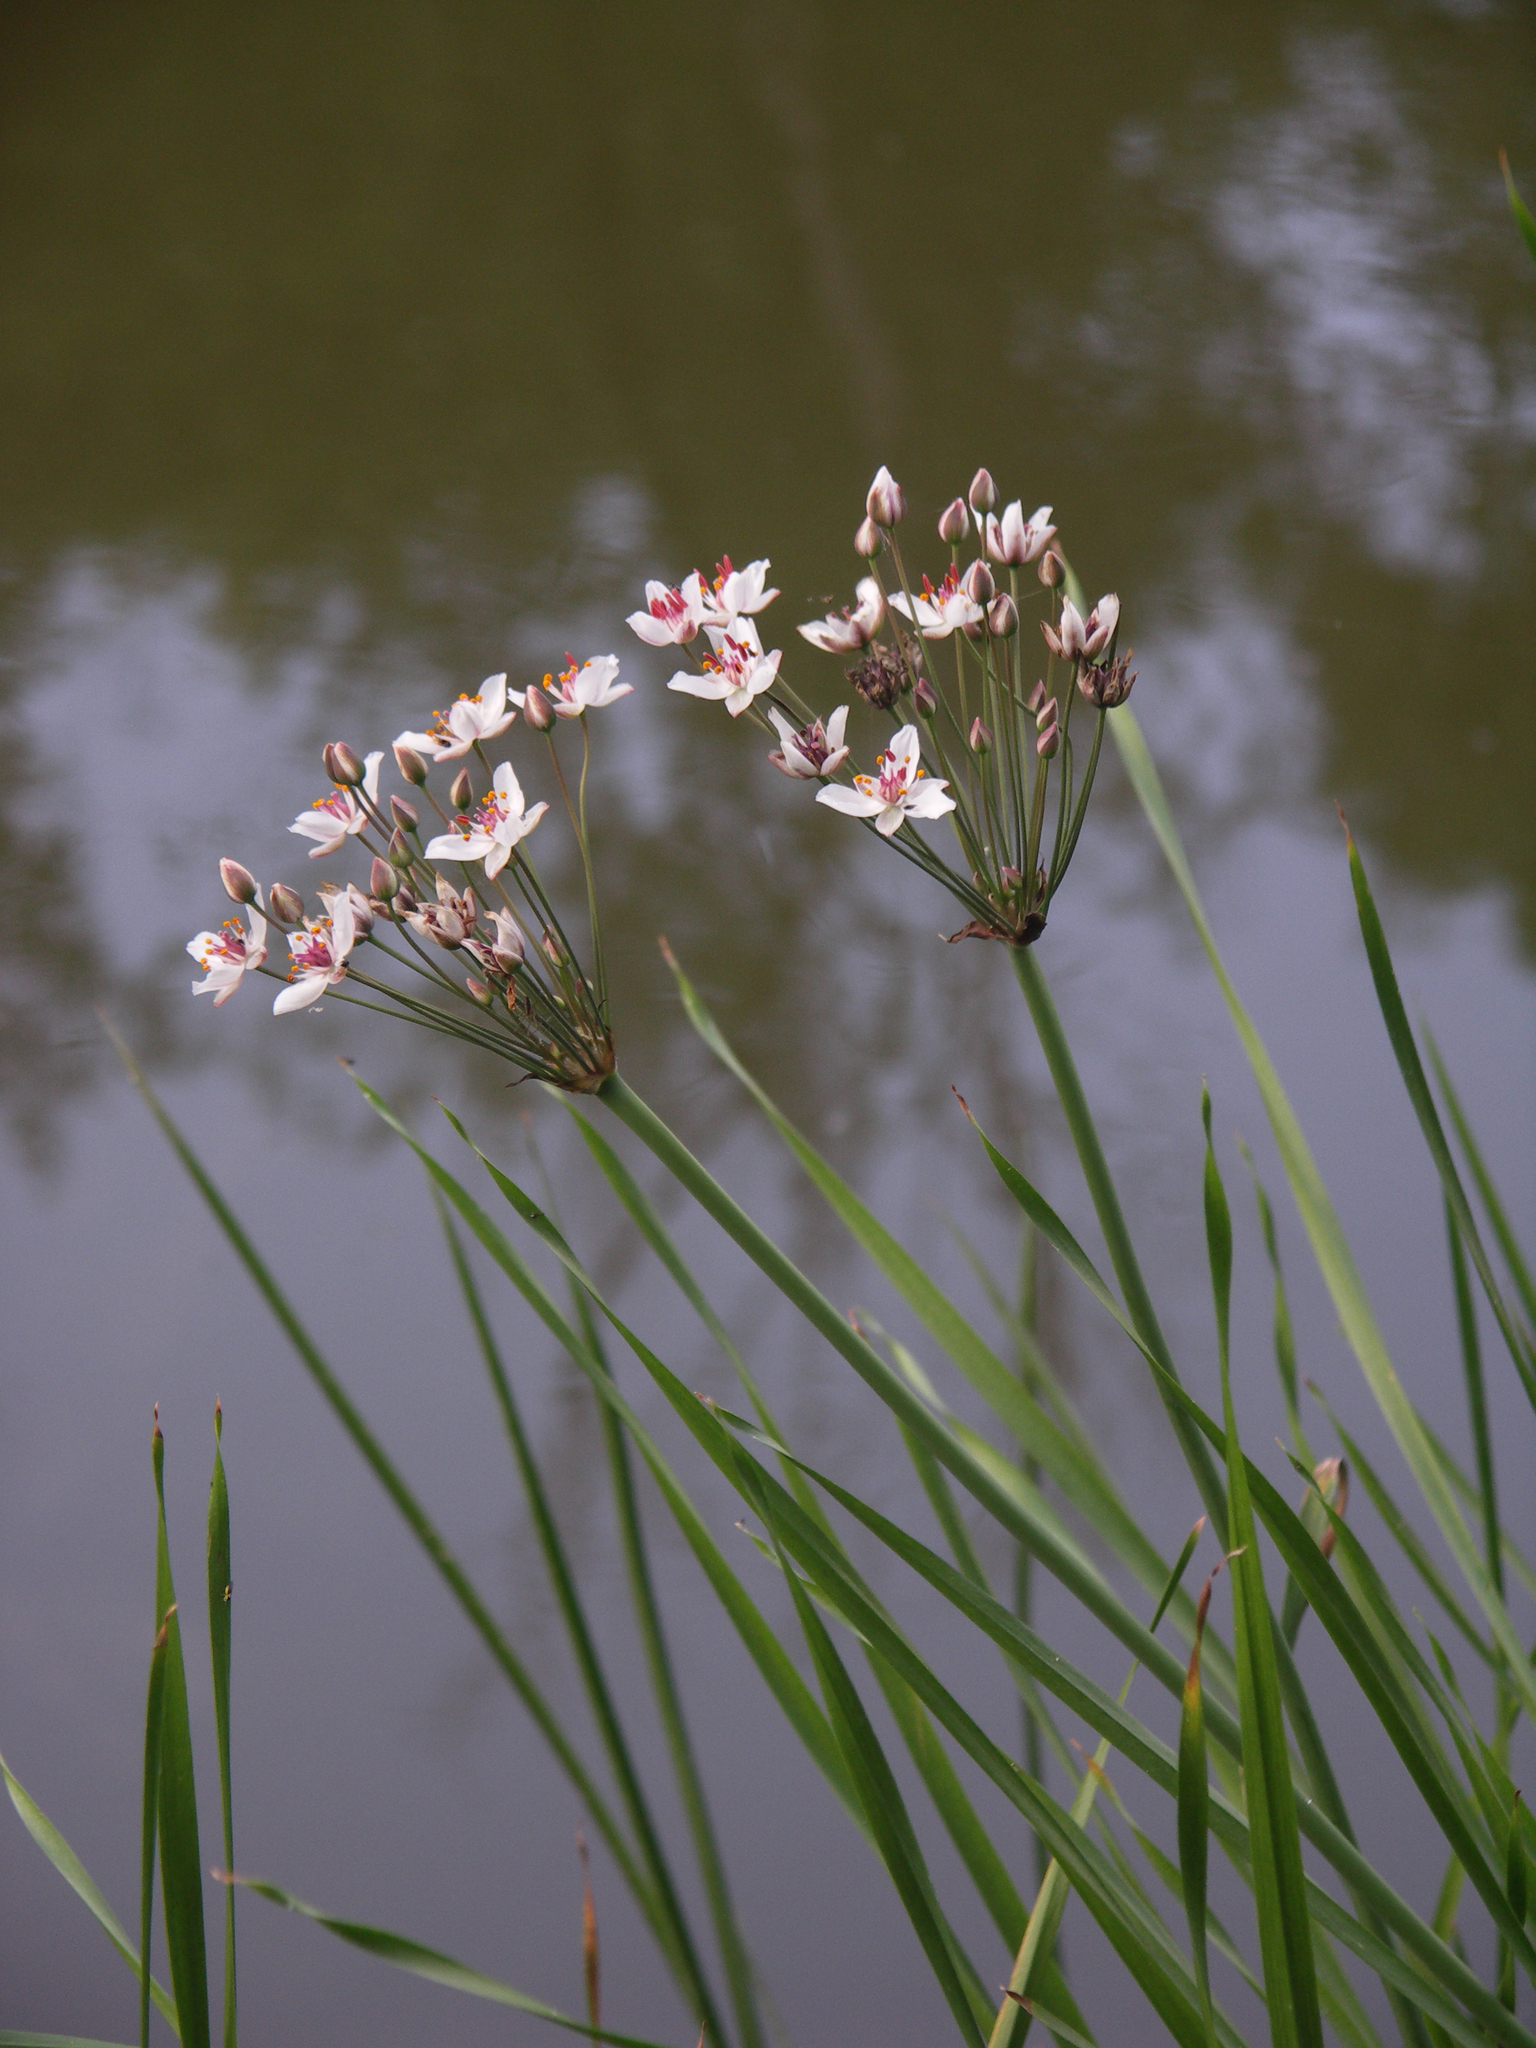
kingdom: Plantae
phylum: Tracheophyta
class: Liliopsida
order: Alismatales
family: Butomaceae
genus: Butomus
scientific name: Butomus umbellatus
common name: Flowering-rush
